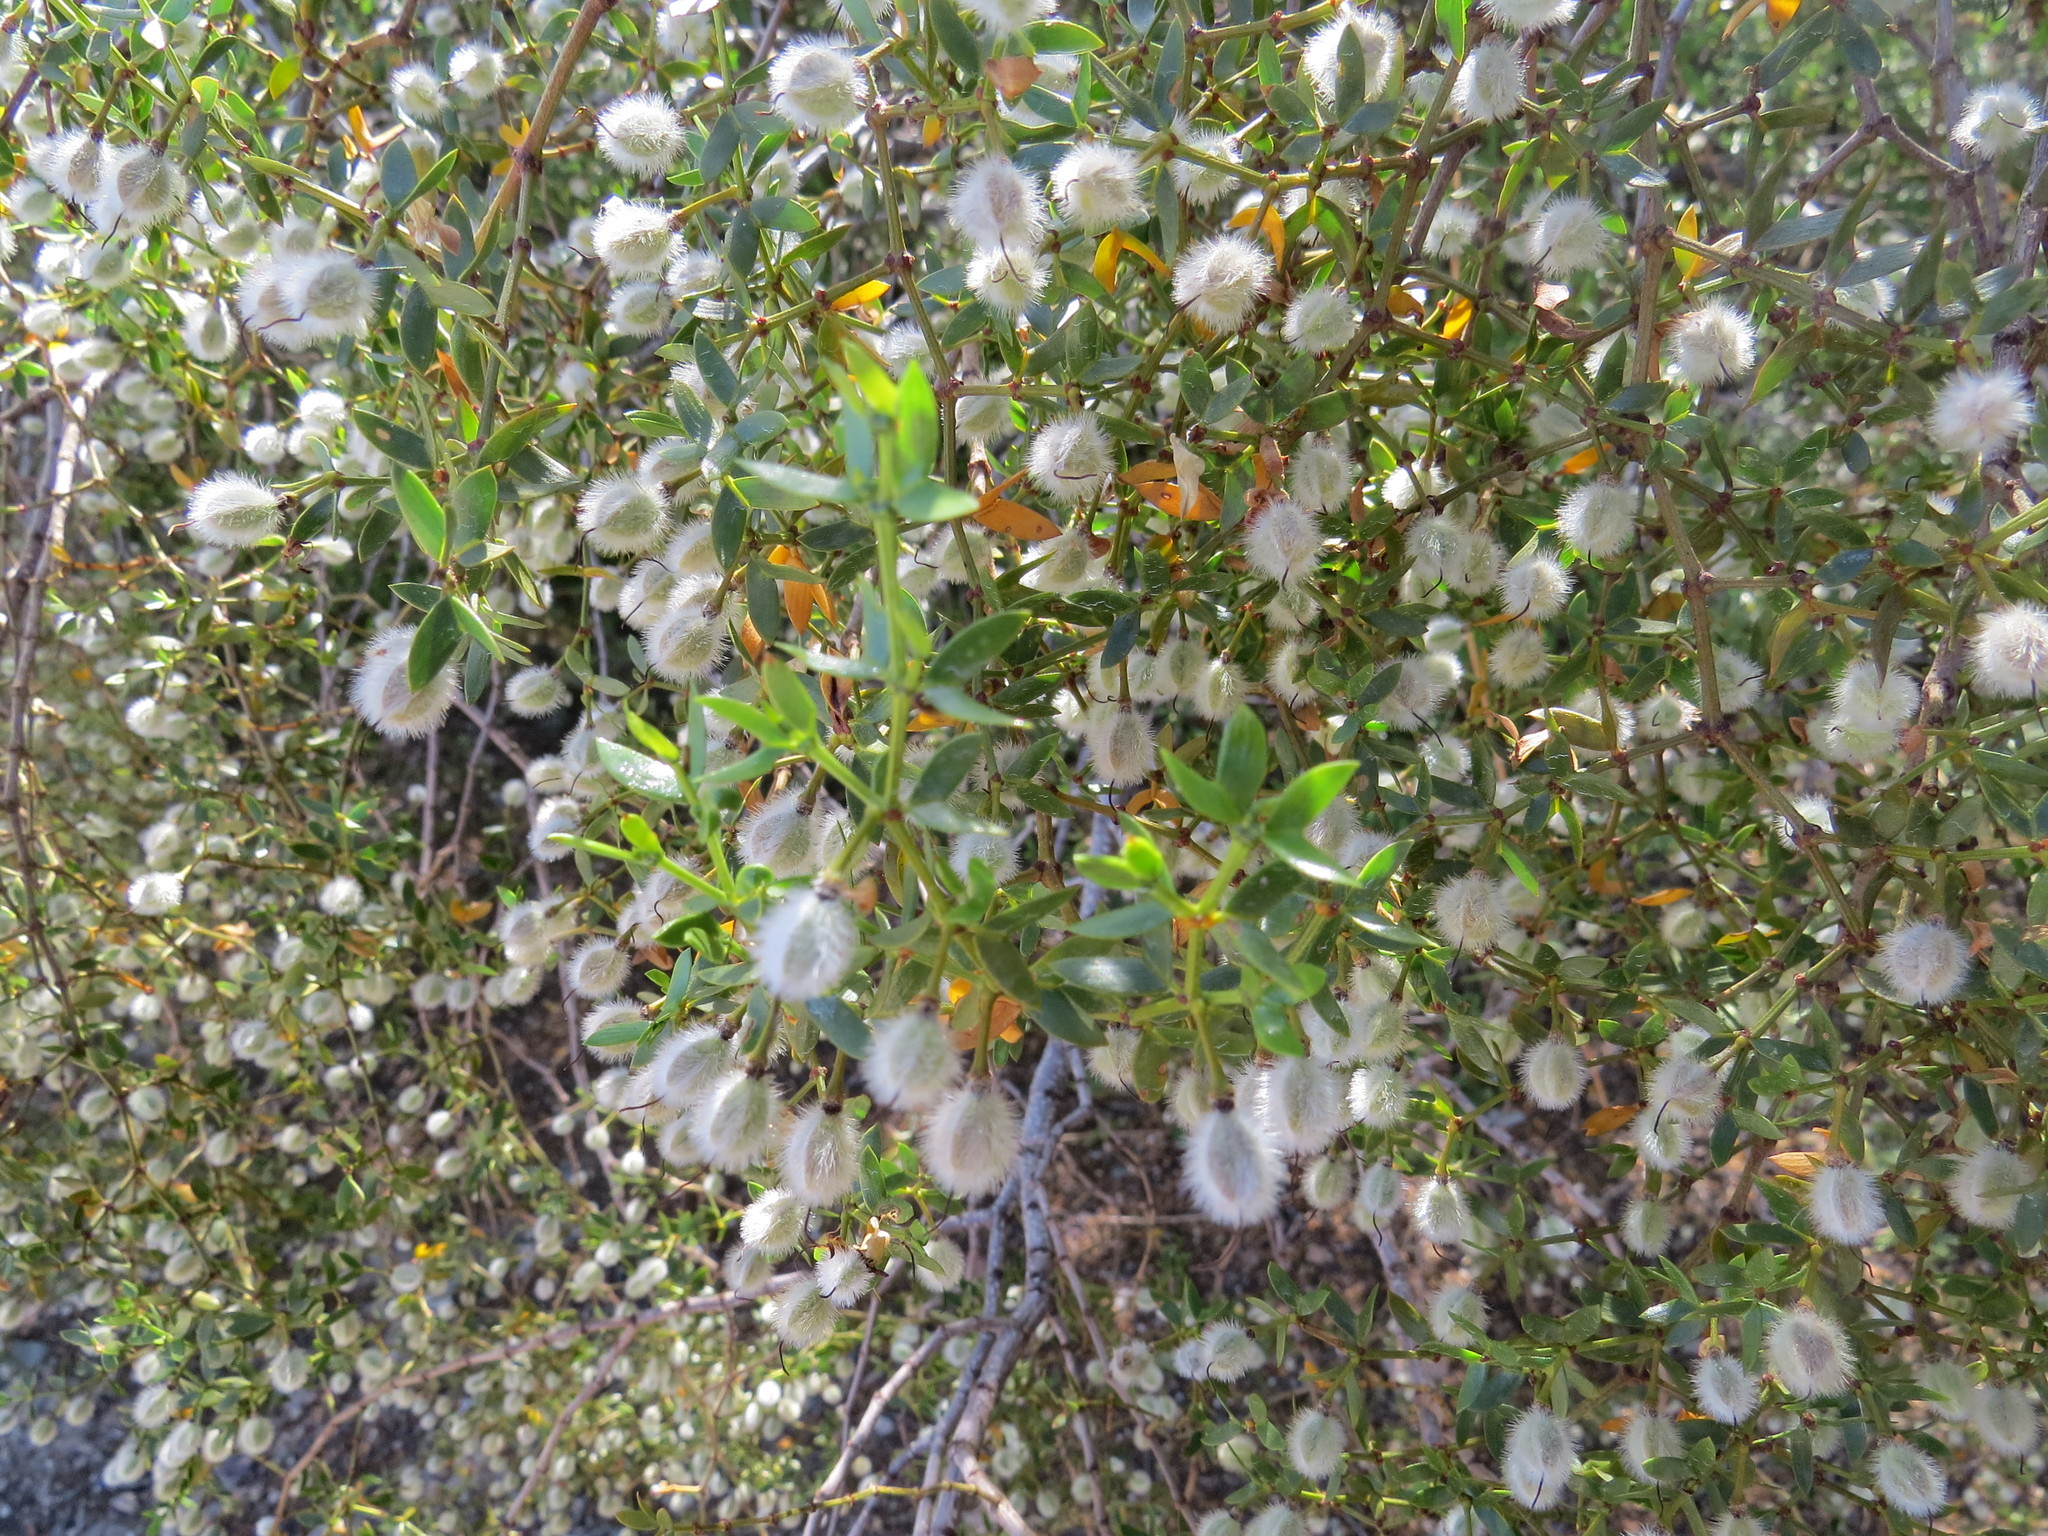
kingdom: Plantae
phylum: Tracheophyta
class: Magnoliopsida
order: Zygophyllales
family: Zygophyllaceae
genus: Larrea
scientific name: Larrea divaricata
